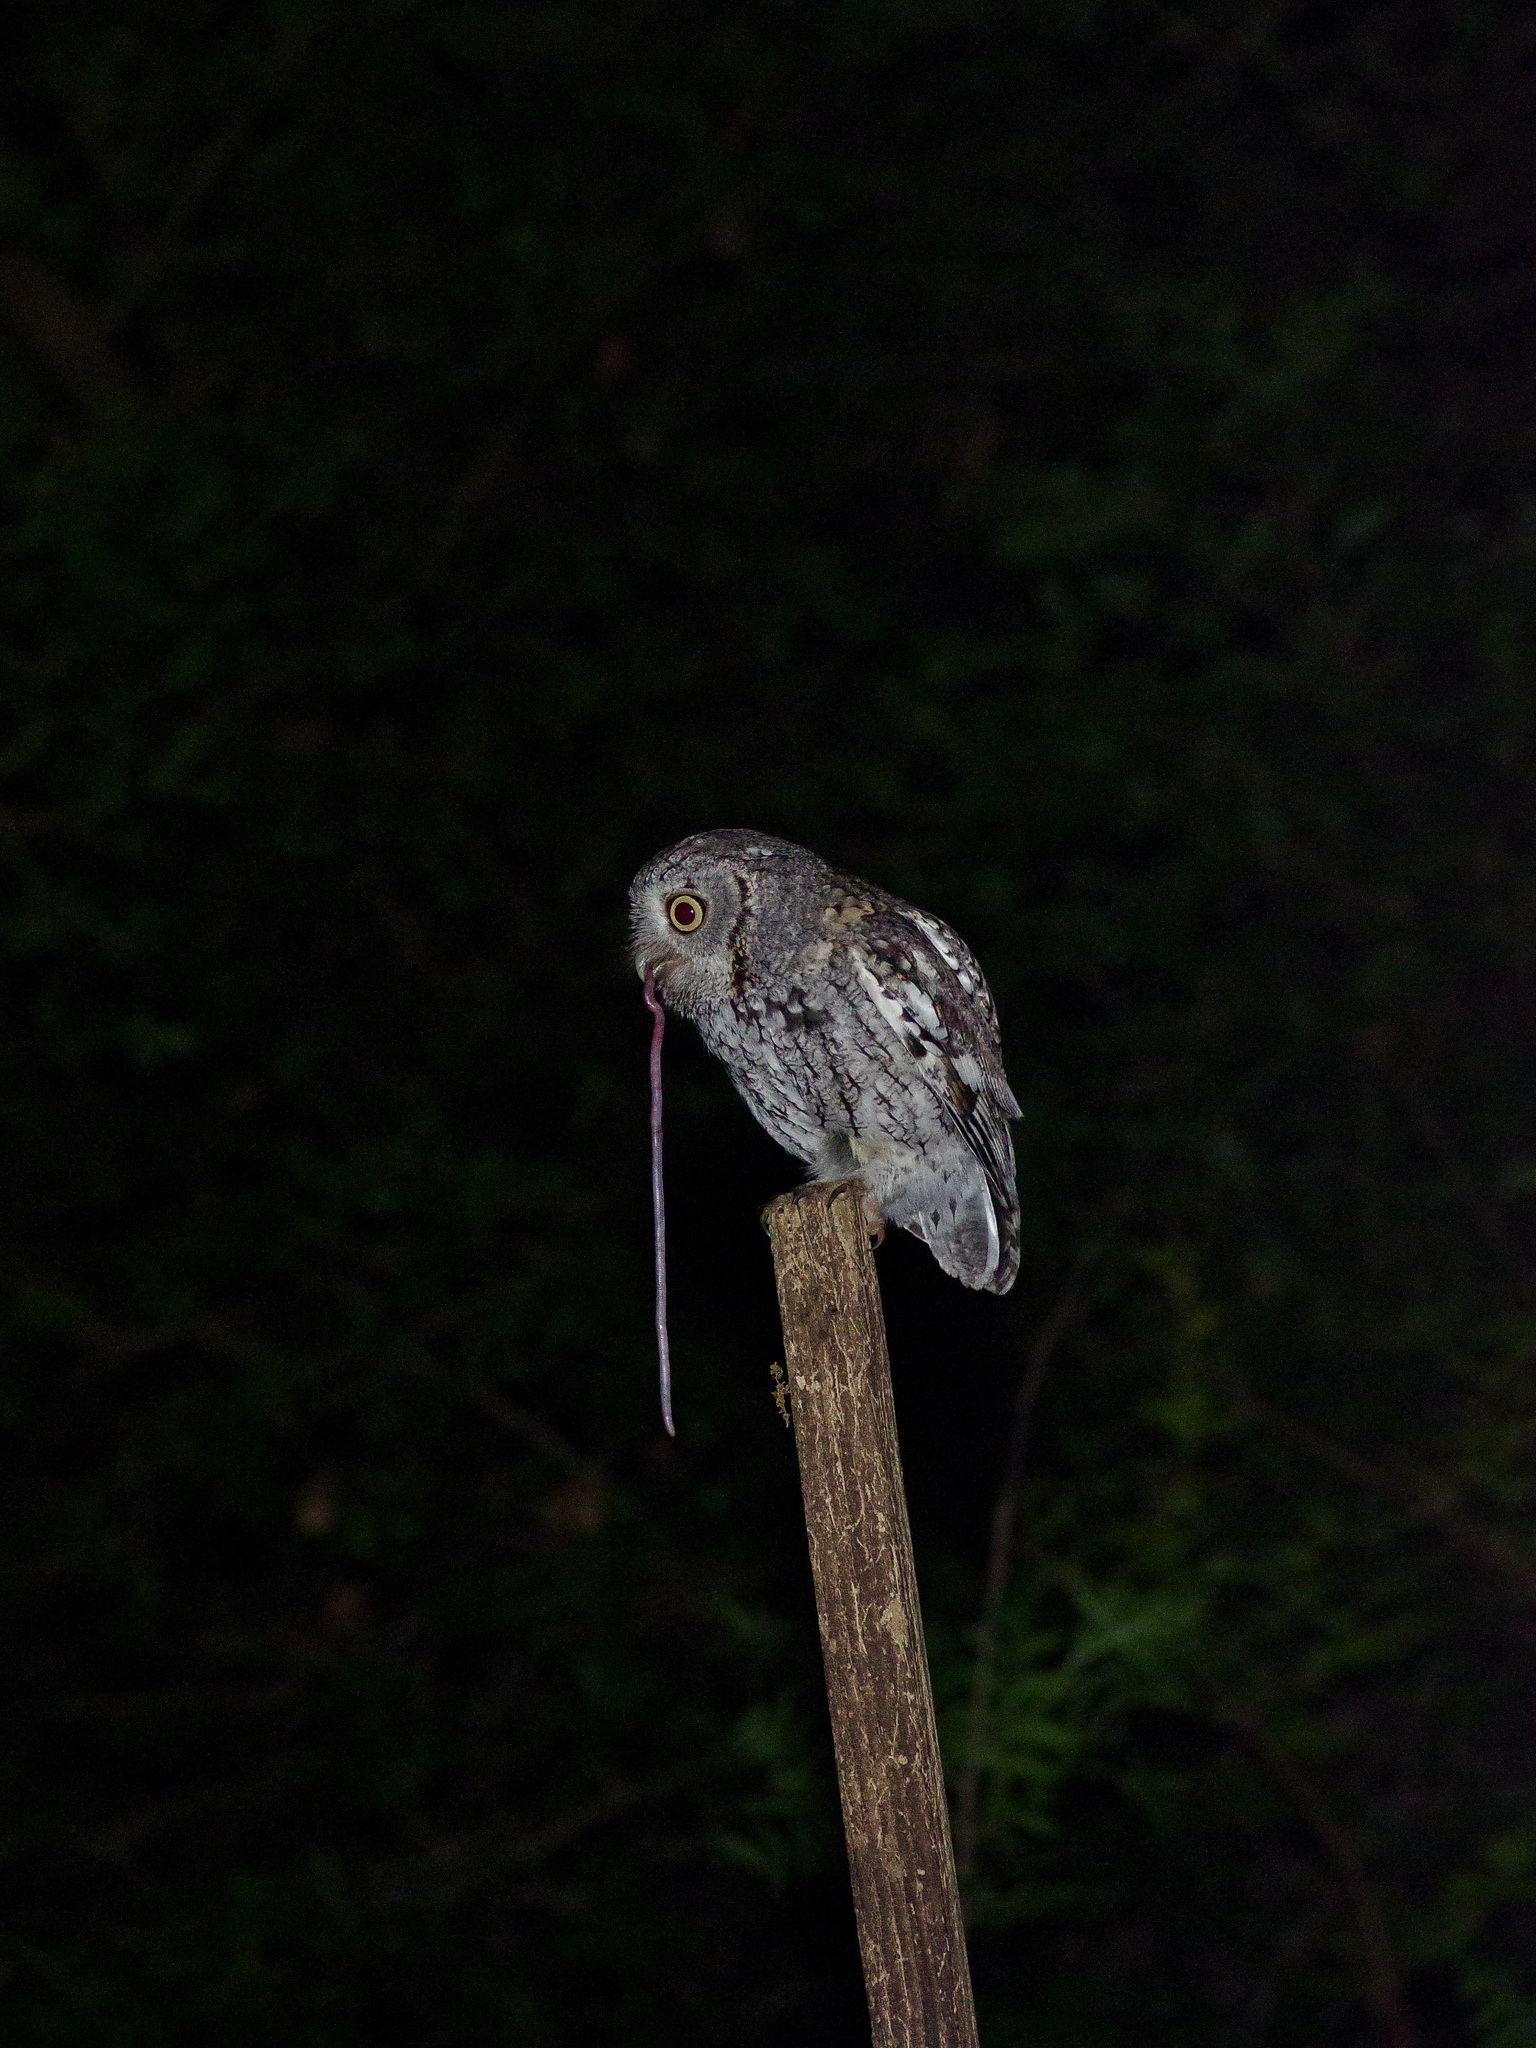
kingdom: Animalia
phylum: Chordata
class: Aves
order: Strigiformes
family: Strigidae
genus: Megascops
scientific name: Megascops asio
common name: Eastern screech-owl
